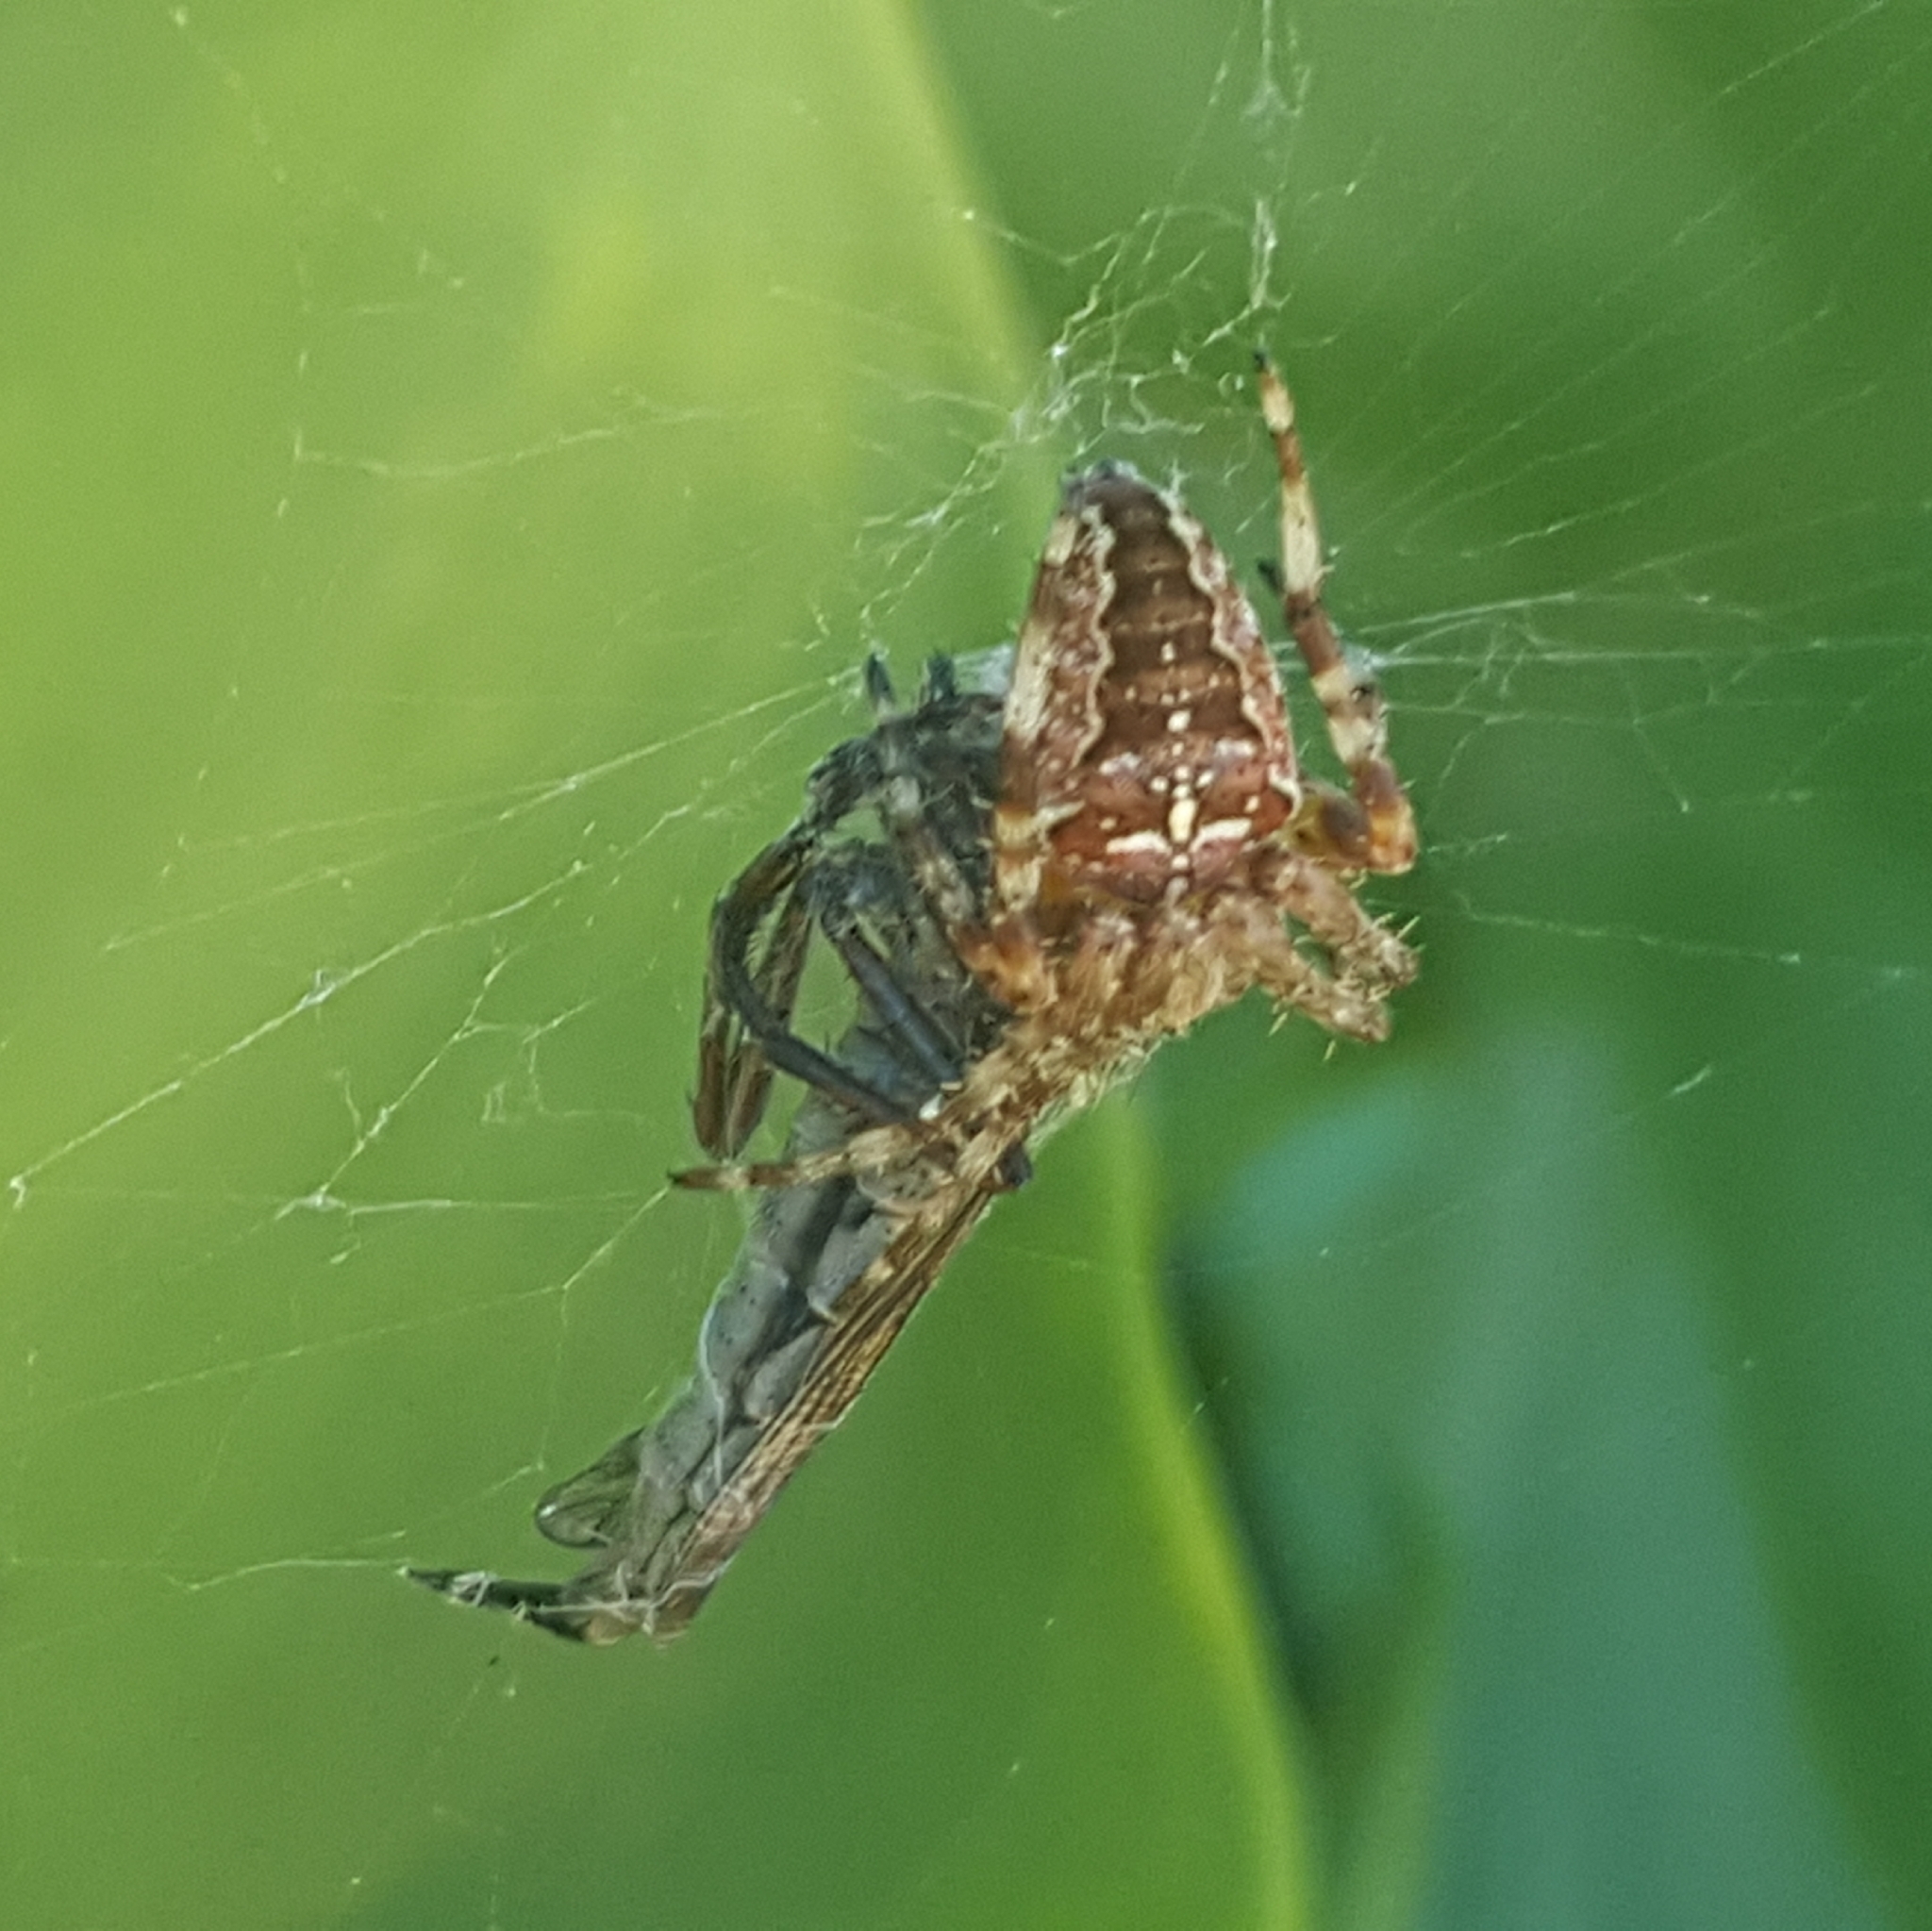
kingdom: Animalia
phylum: Arthropoda
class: Arachnida
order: Araneae
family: Araneidae
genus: Araneus
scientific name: Araneus diadematus
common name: Cross orbweaver
